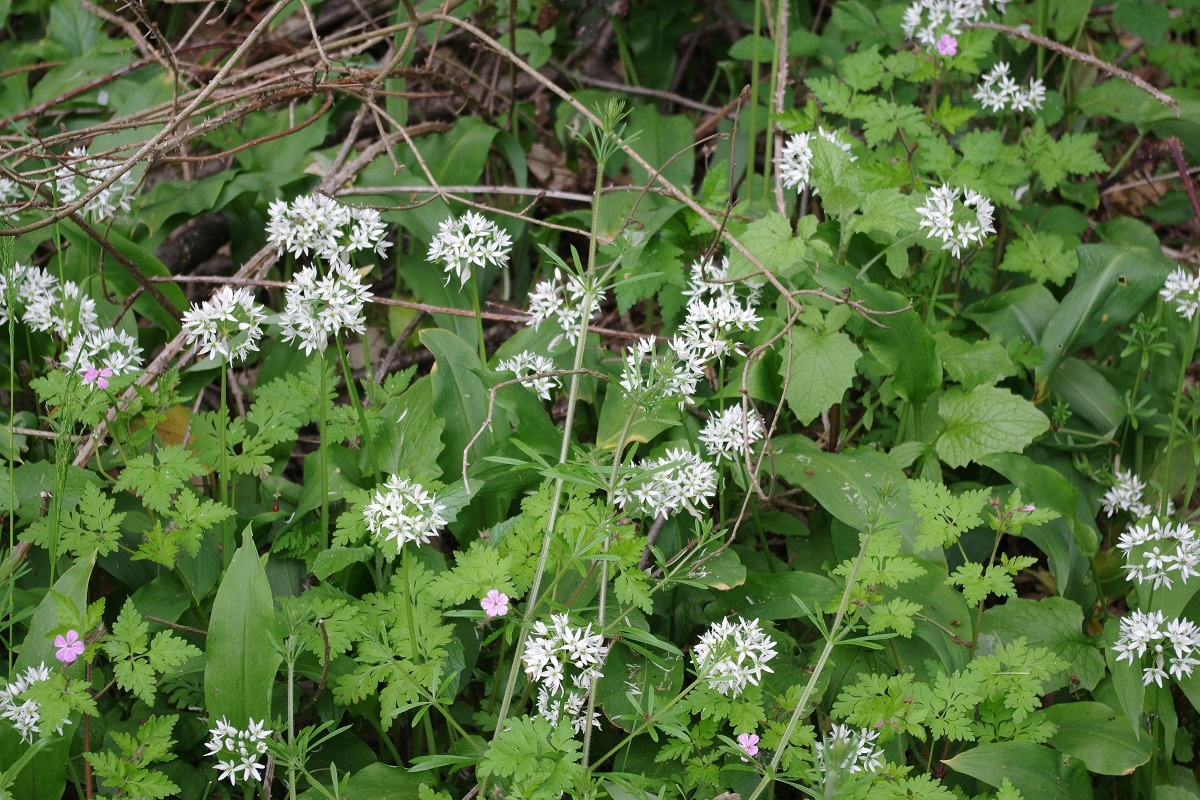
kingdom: Plantae
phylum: Tracheophyta
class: Liliopsida
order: Asparagales
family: Amaryllidaceae
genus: Allium
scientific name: Allium ursinum
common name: Ramsons
